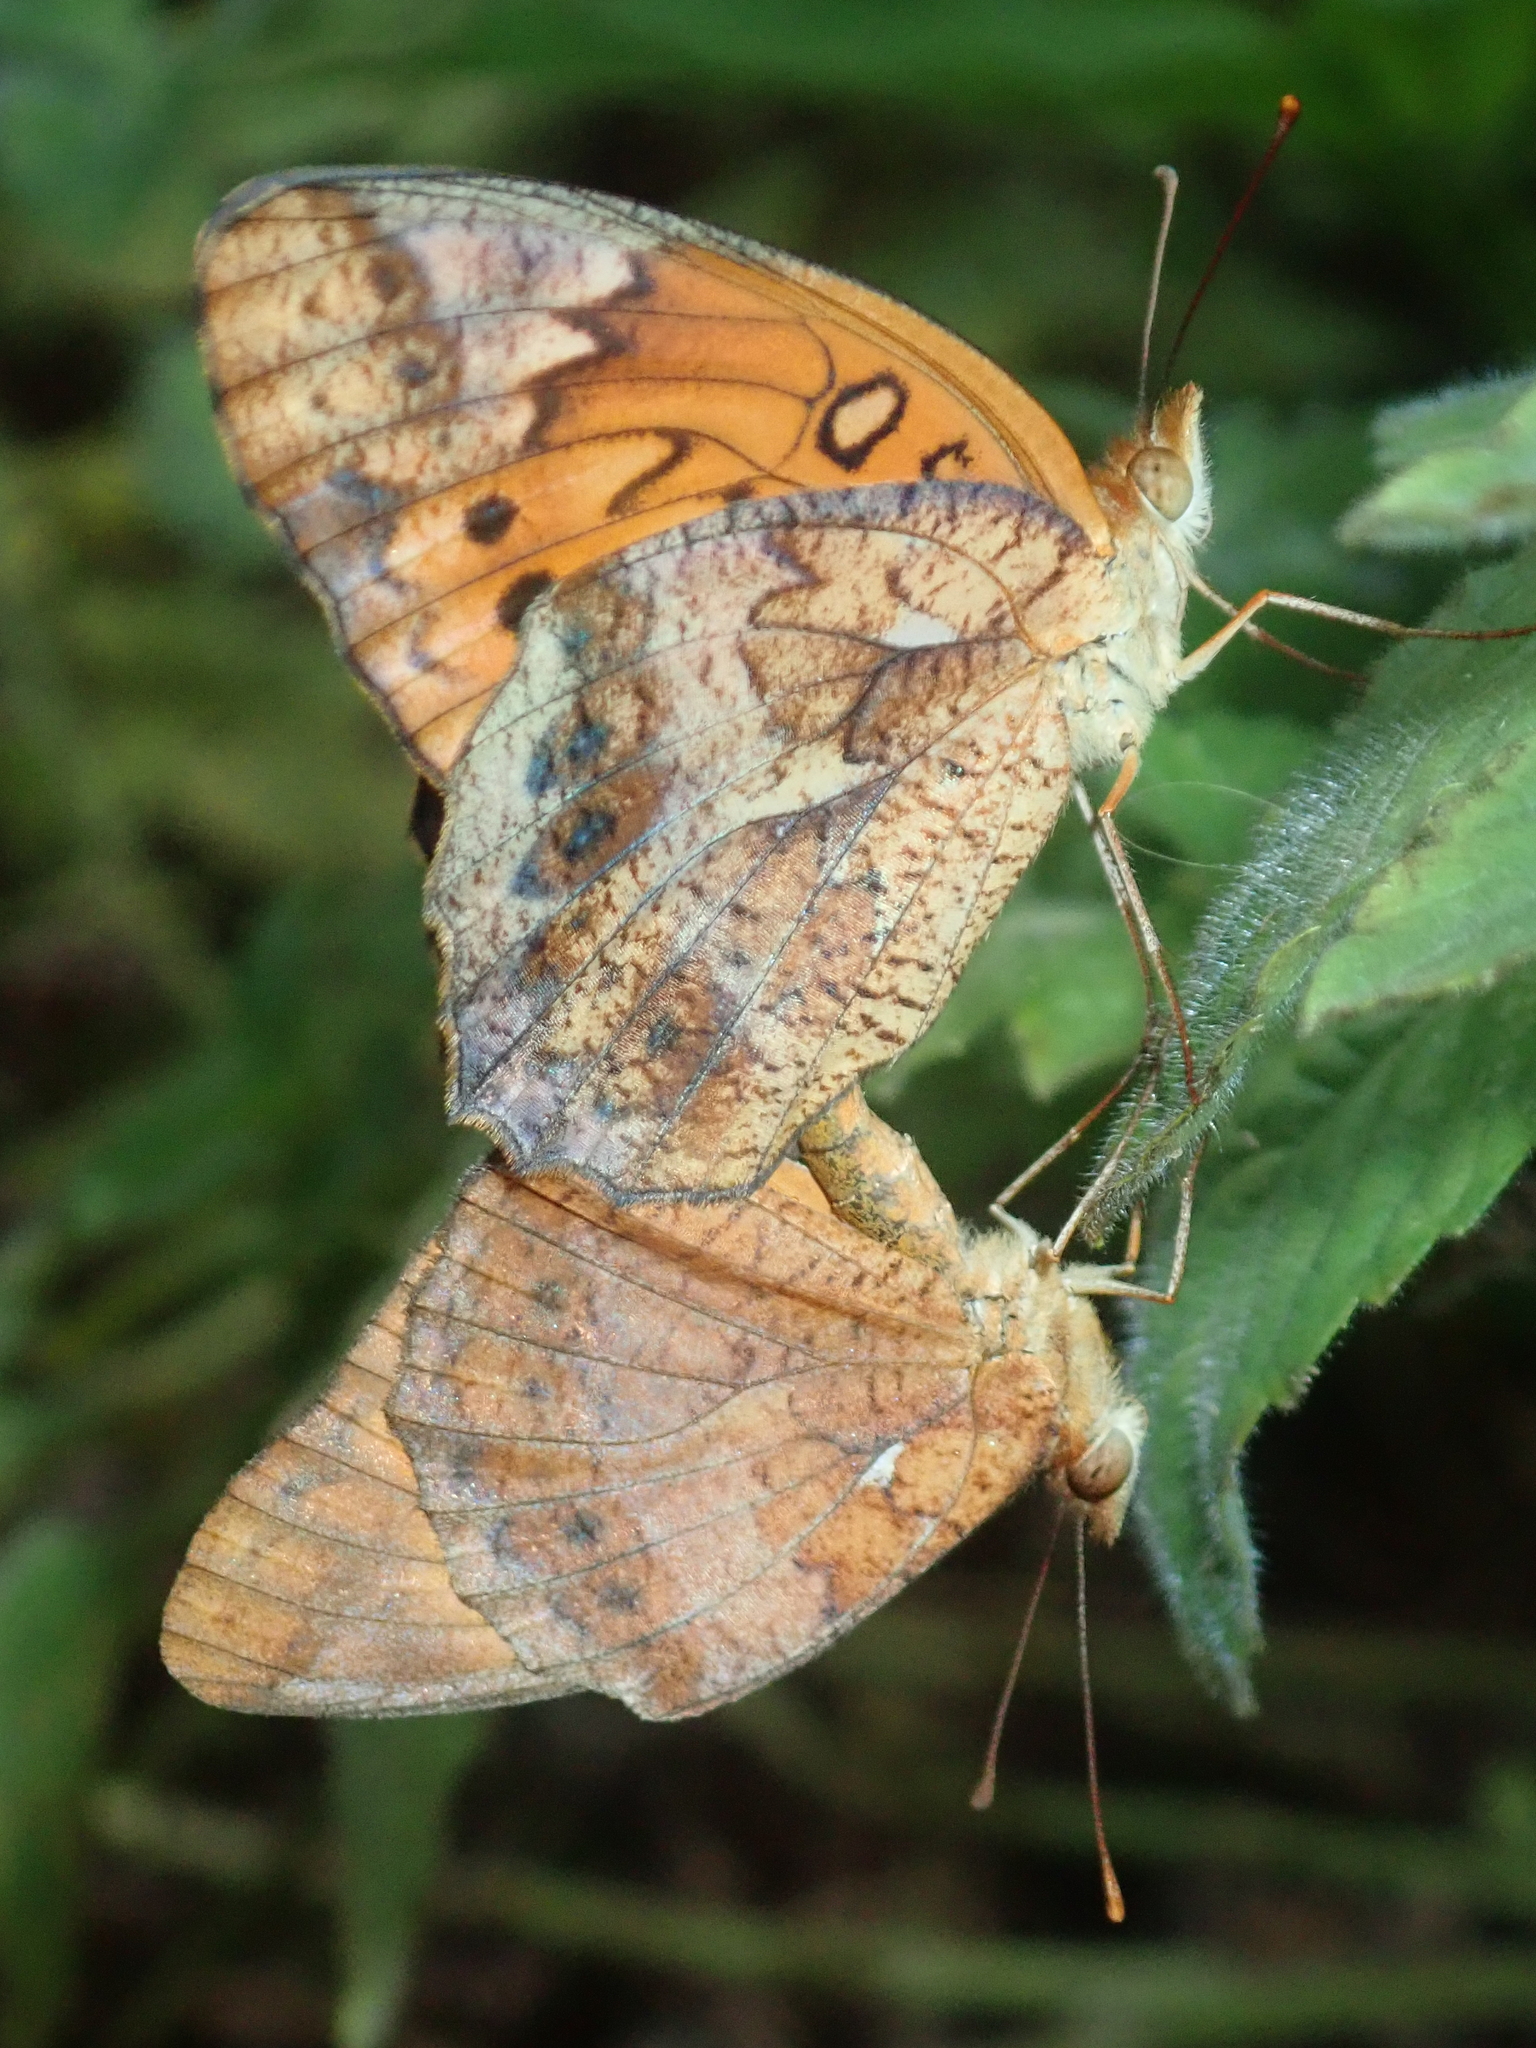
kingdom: Animalia
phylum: Arthropoda
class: Insecta
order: Lepidoptera
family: Nymphalidae
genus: Euptoieta
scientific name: Euptoieta hegesia
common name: Mexican fritillary
